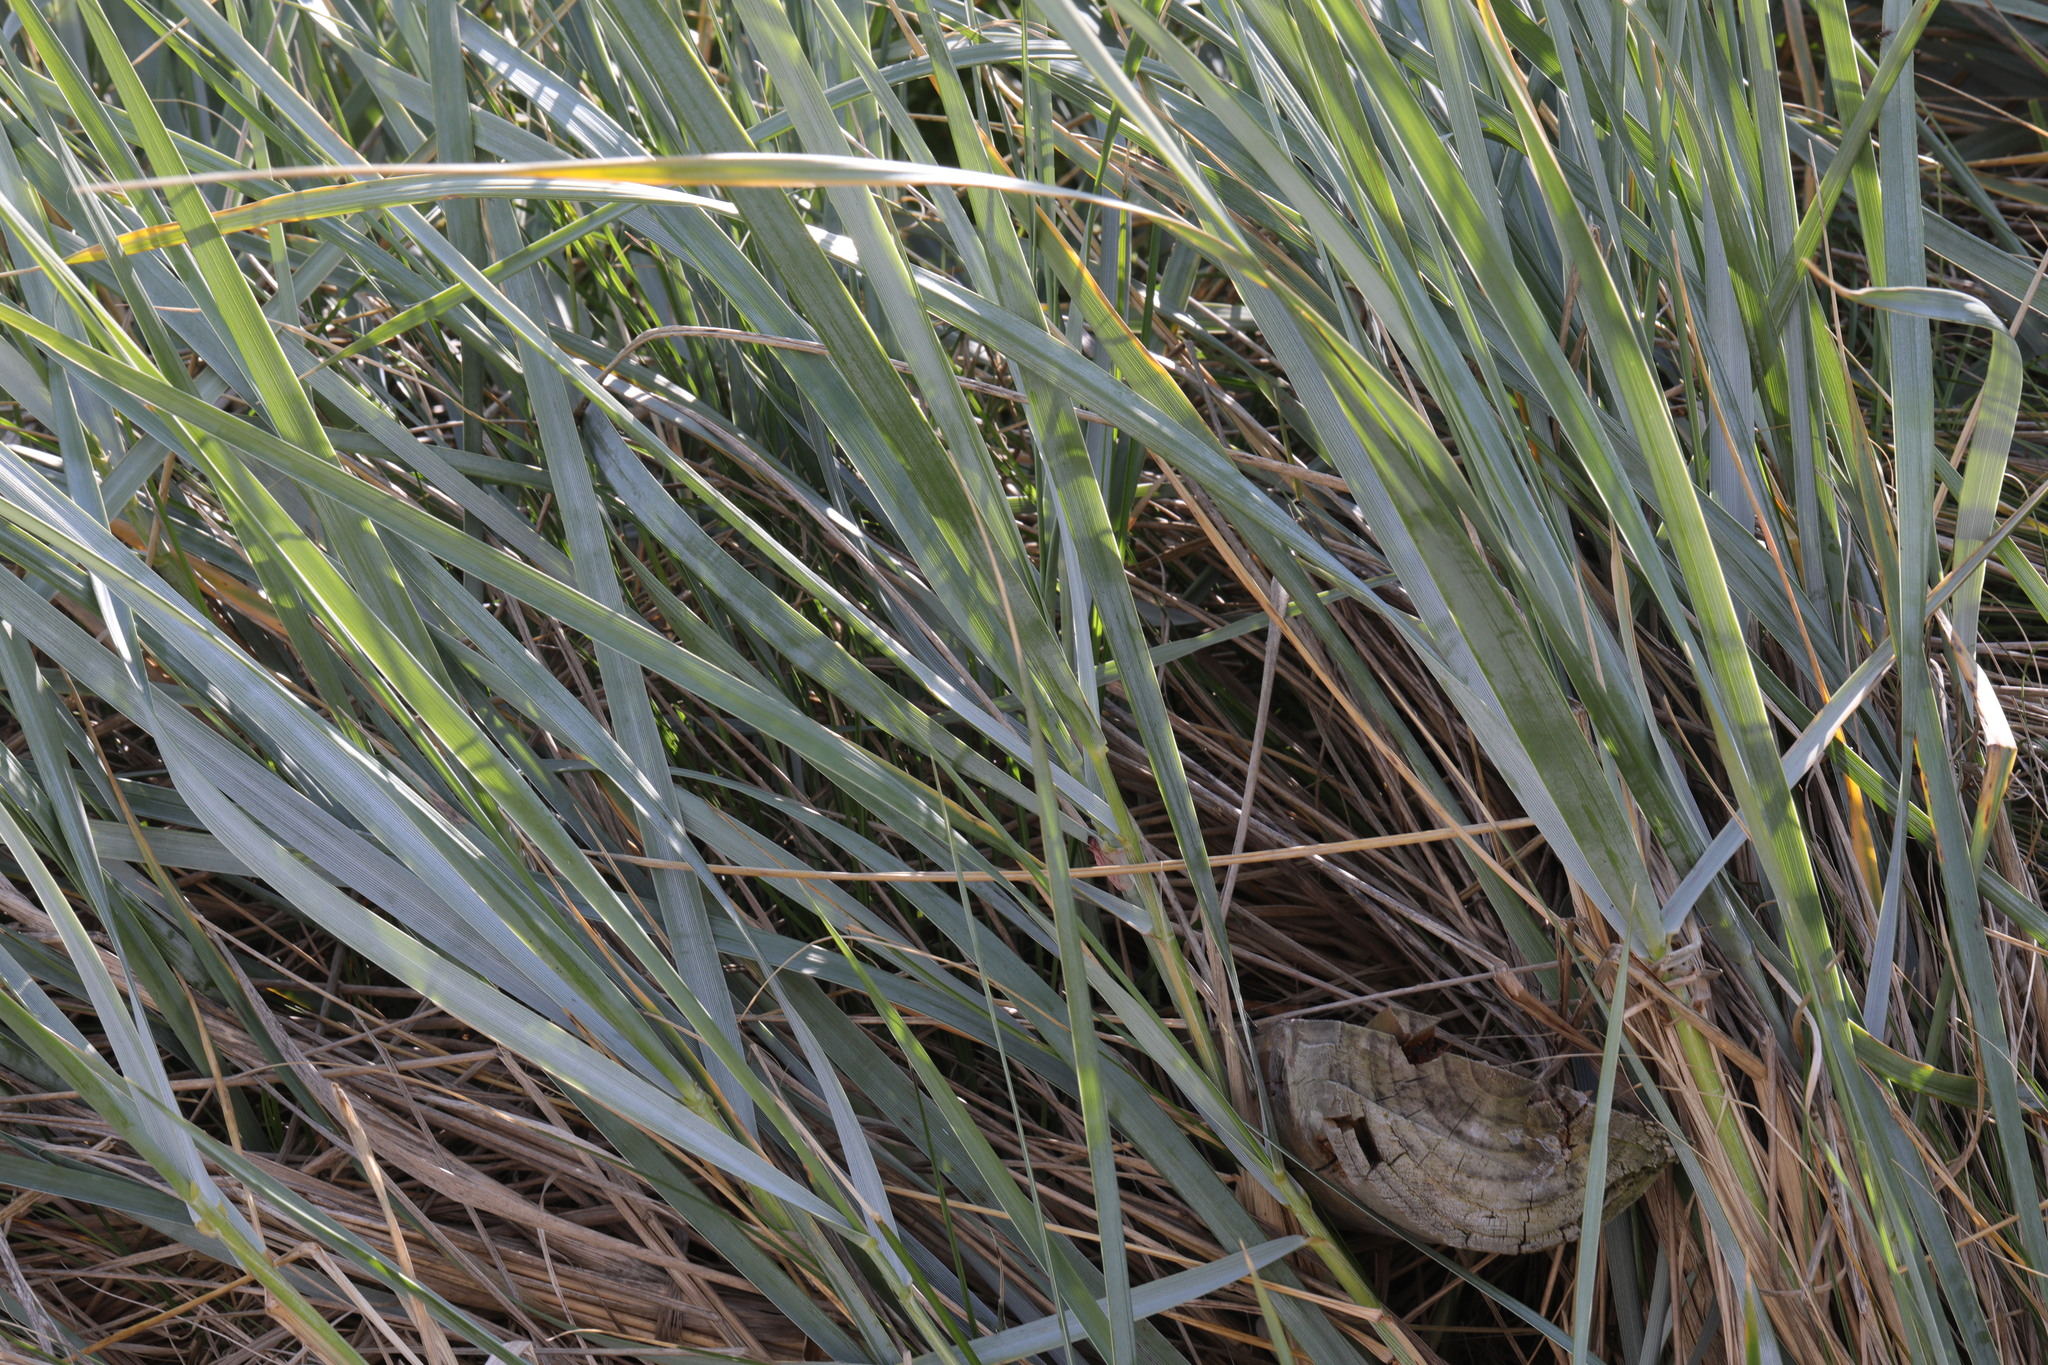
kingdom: Plantae
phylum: Tracheophyta
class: Liliopsida
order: Poales
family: Poaceae
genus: Leymus
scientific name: Leymus arenarius
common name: Lyme-grass
